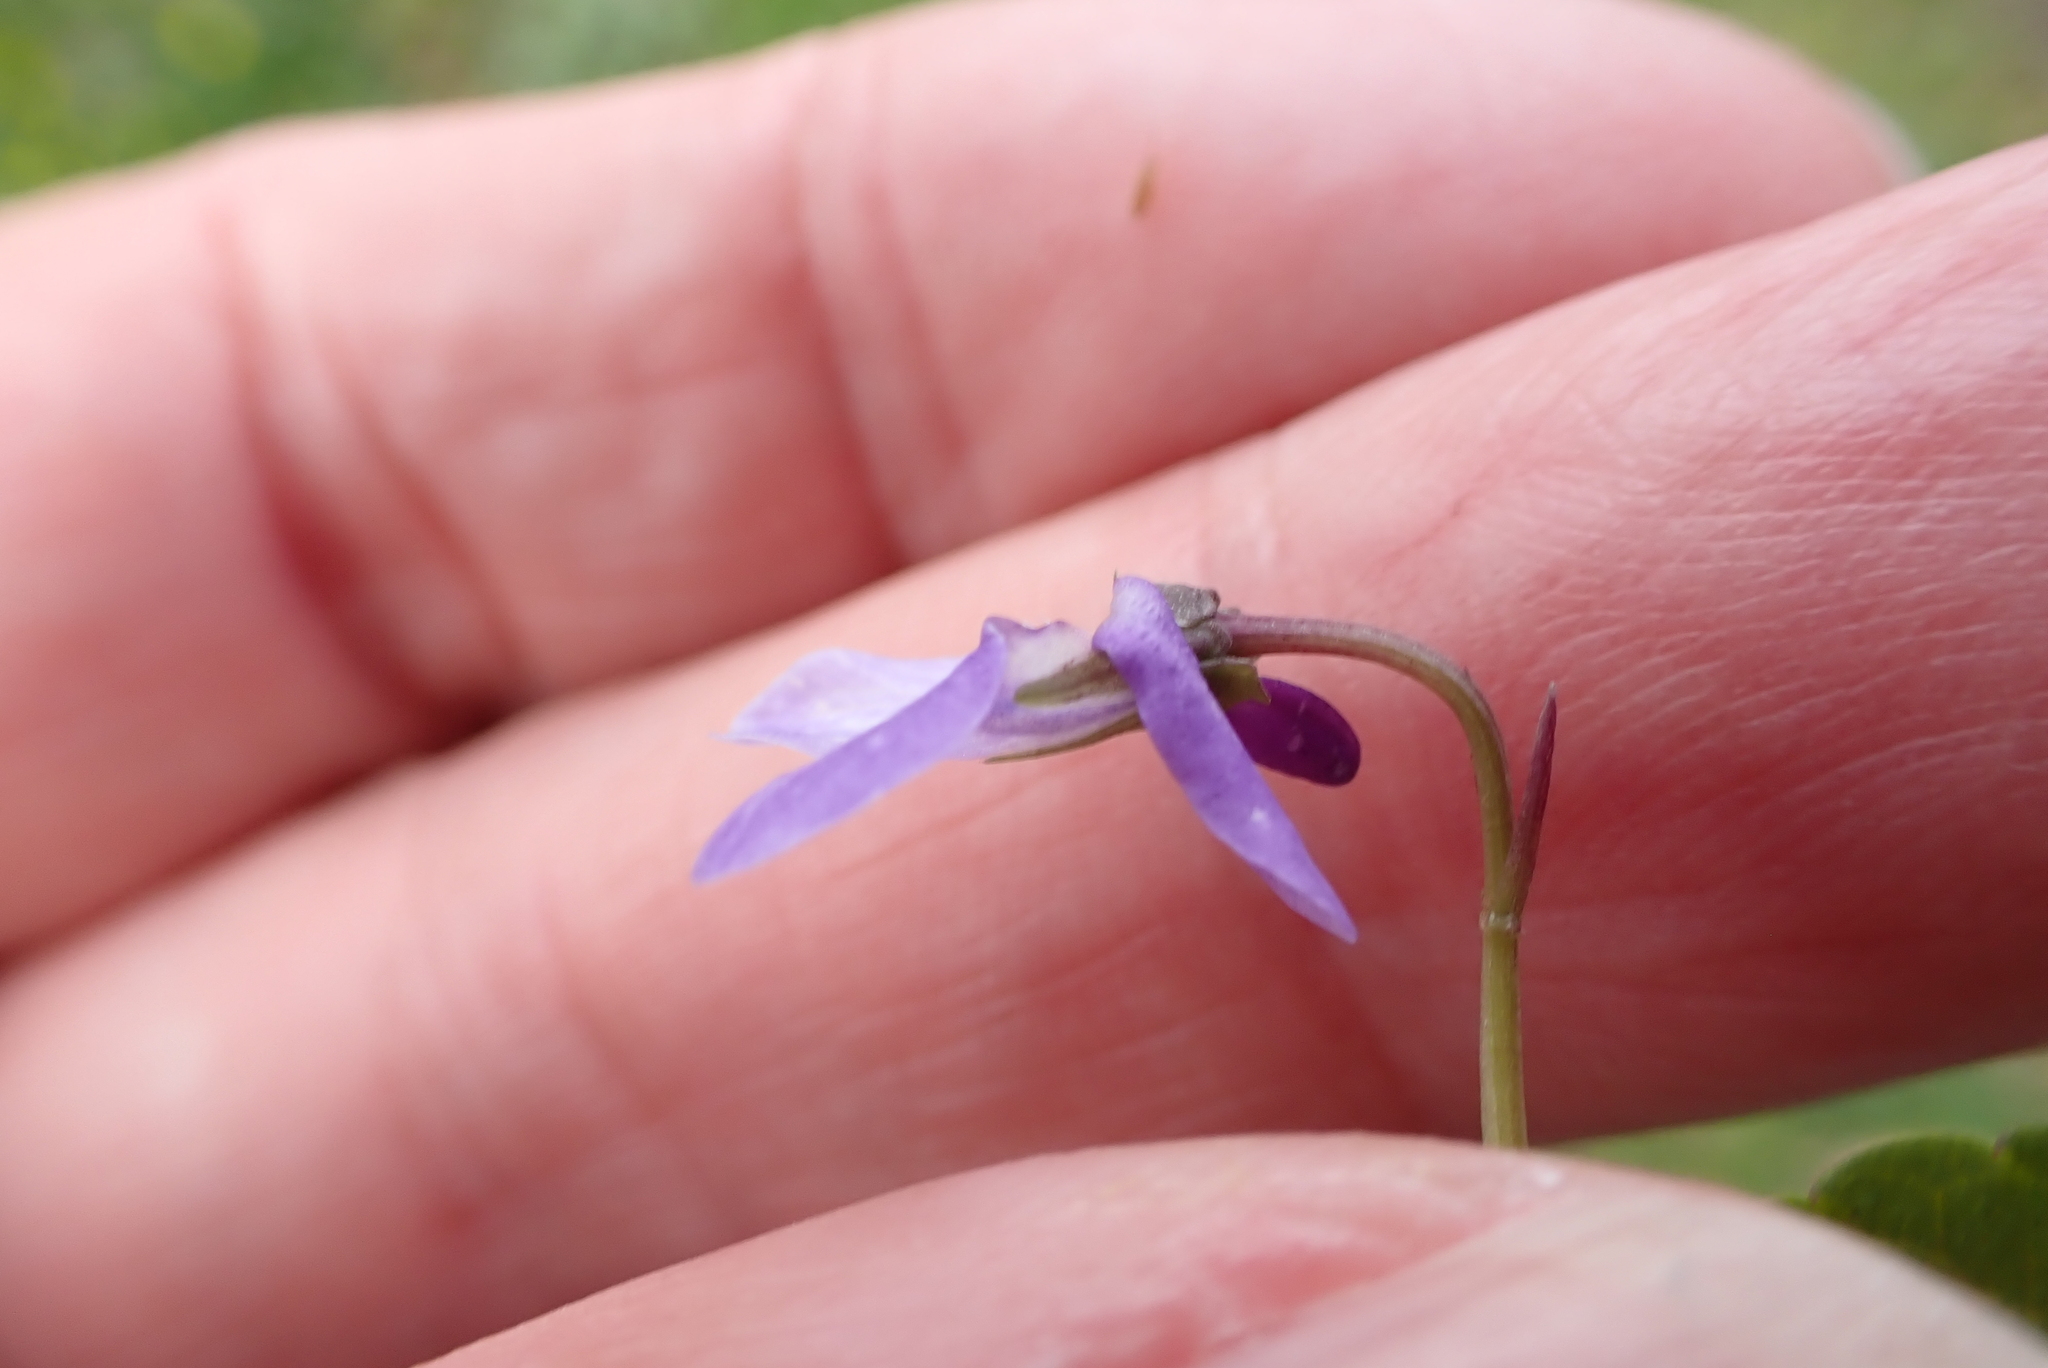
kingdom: Plantae
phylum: Tracheophyta
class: Magnoliopsida
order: Malpighiales
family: Violaceae
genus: Viola
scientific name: Viola reichenbachiana
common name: Early dog-violet
